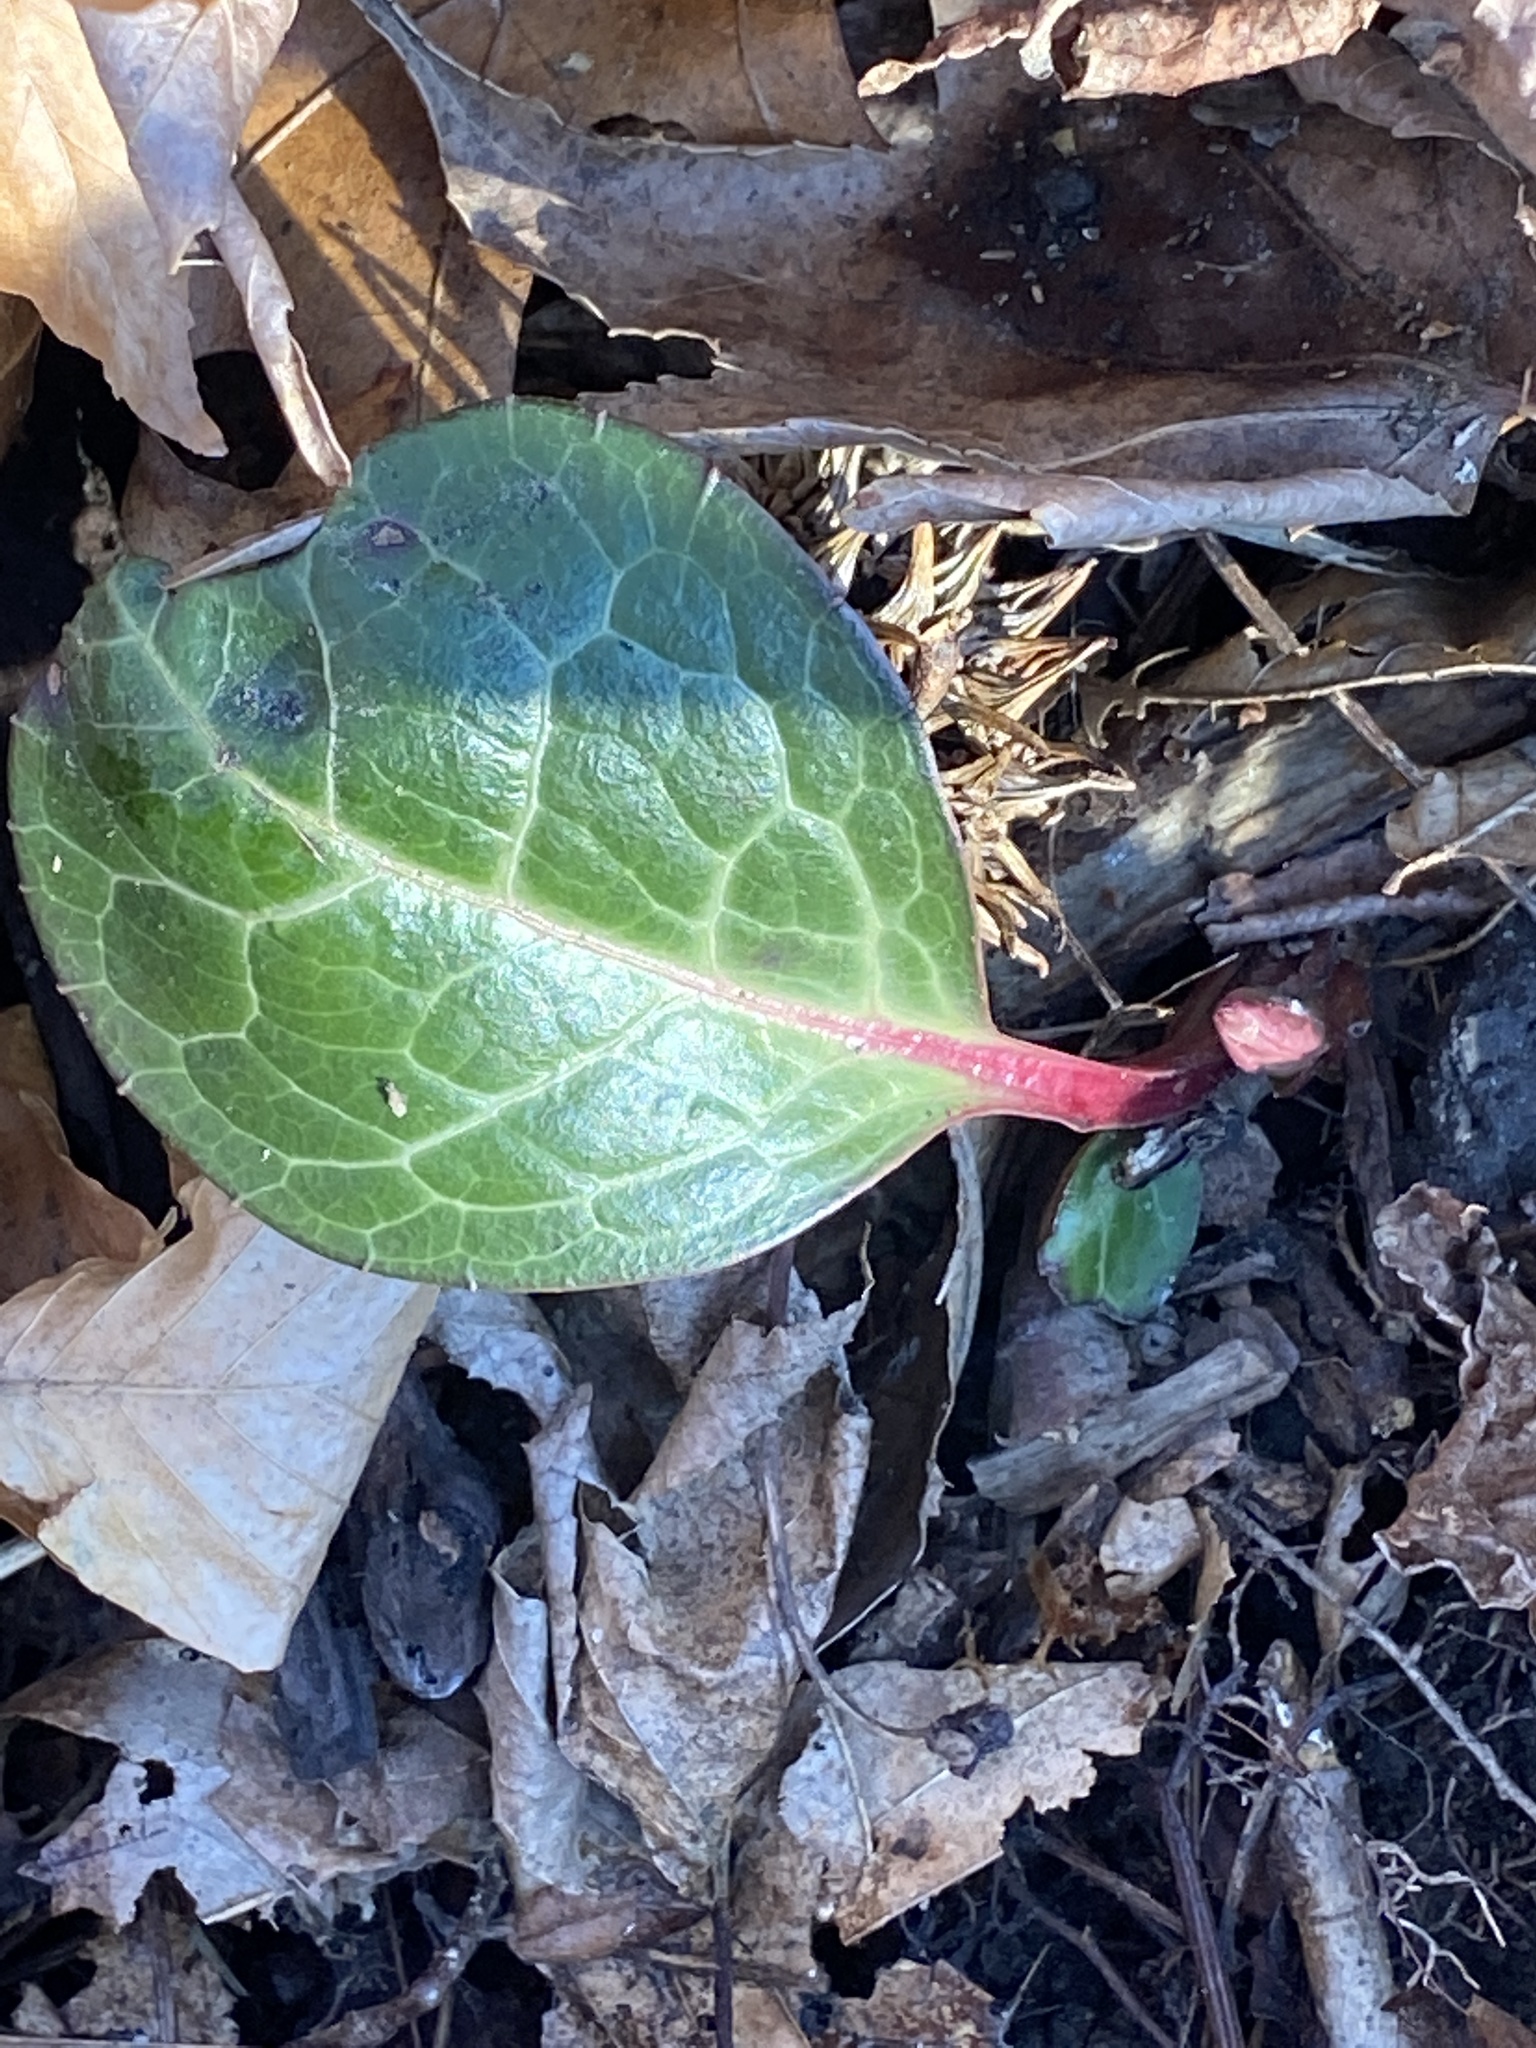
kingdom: Plantae
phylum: Tracheophyta
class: Magnoliopsida
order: Ericales
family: Ericaceae
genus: Pyrola
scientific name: Pyrola americana
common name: American wintergreen
